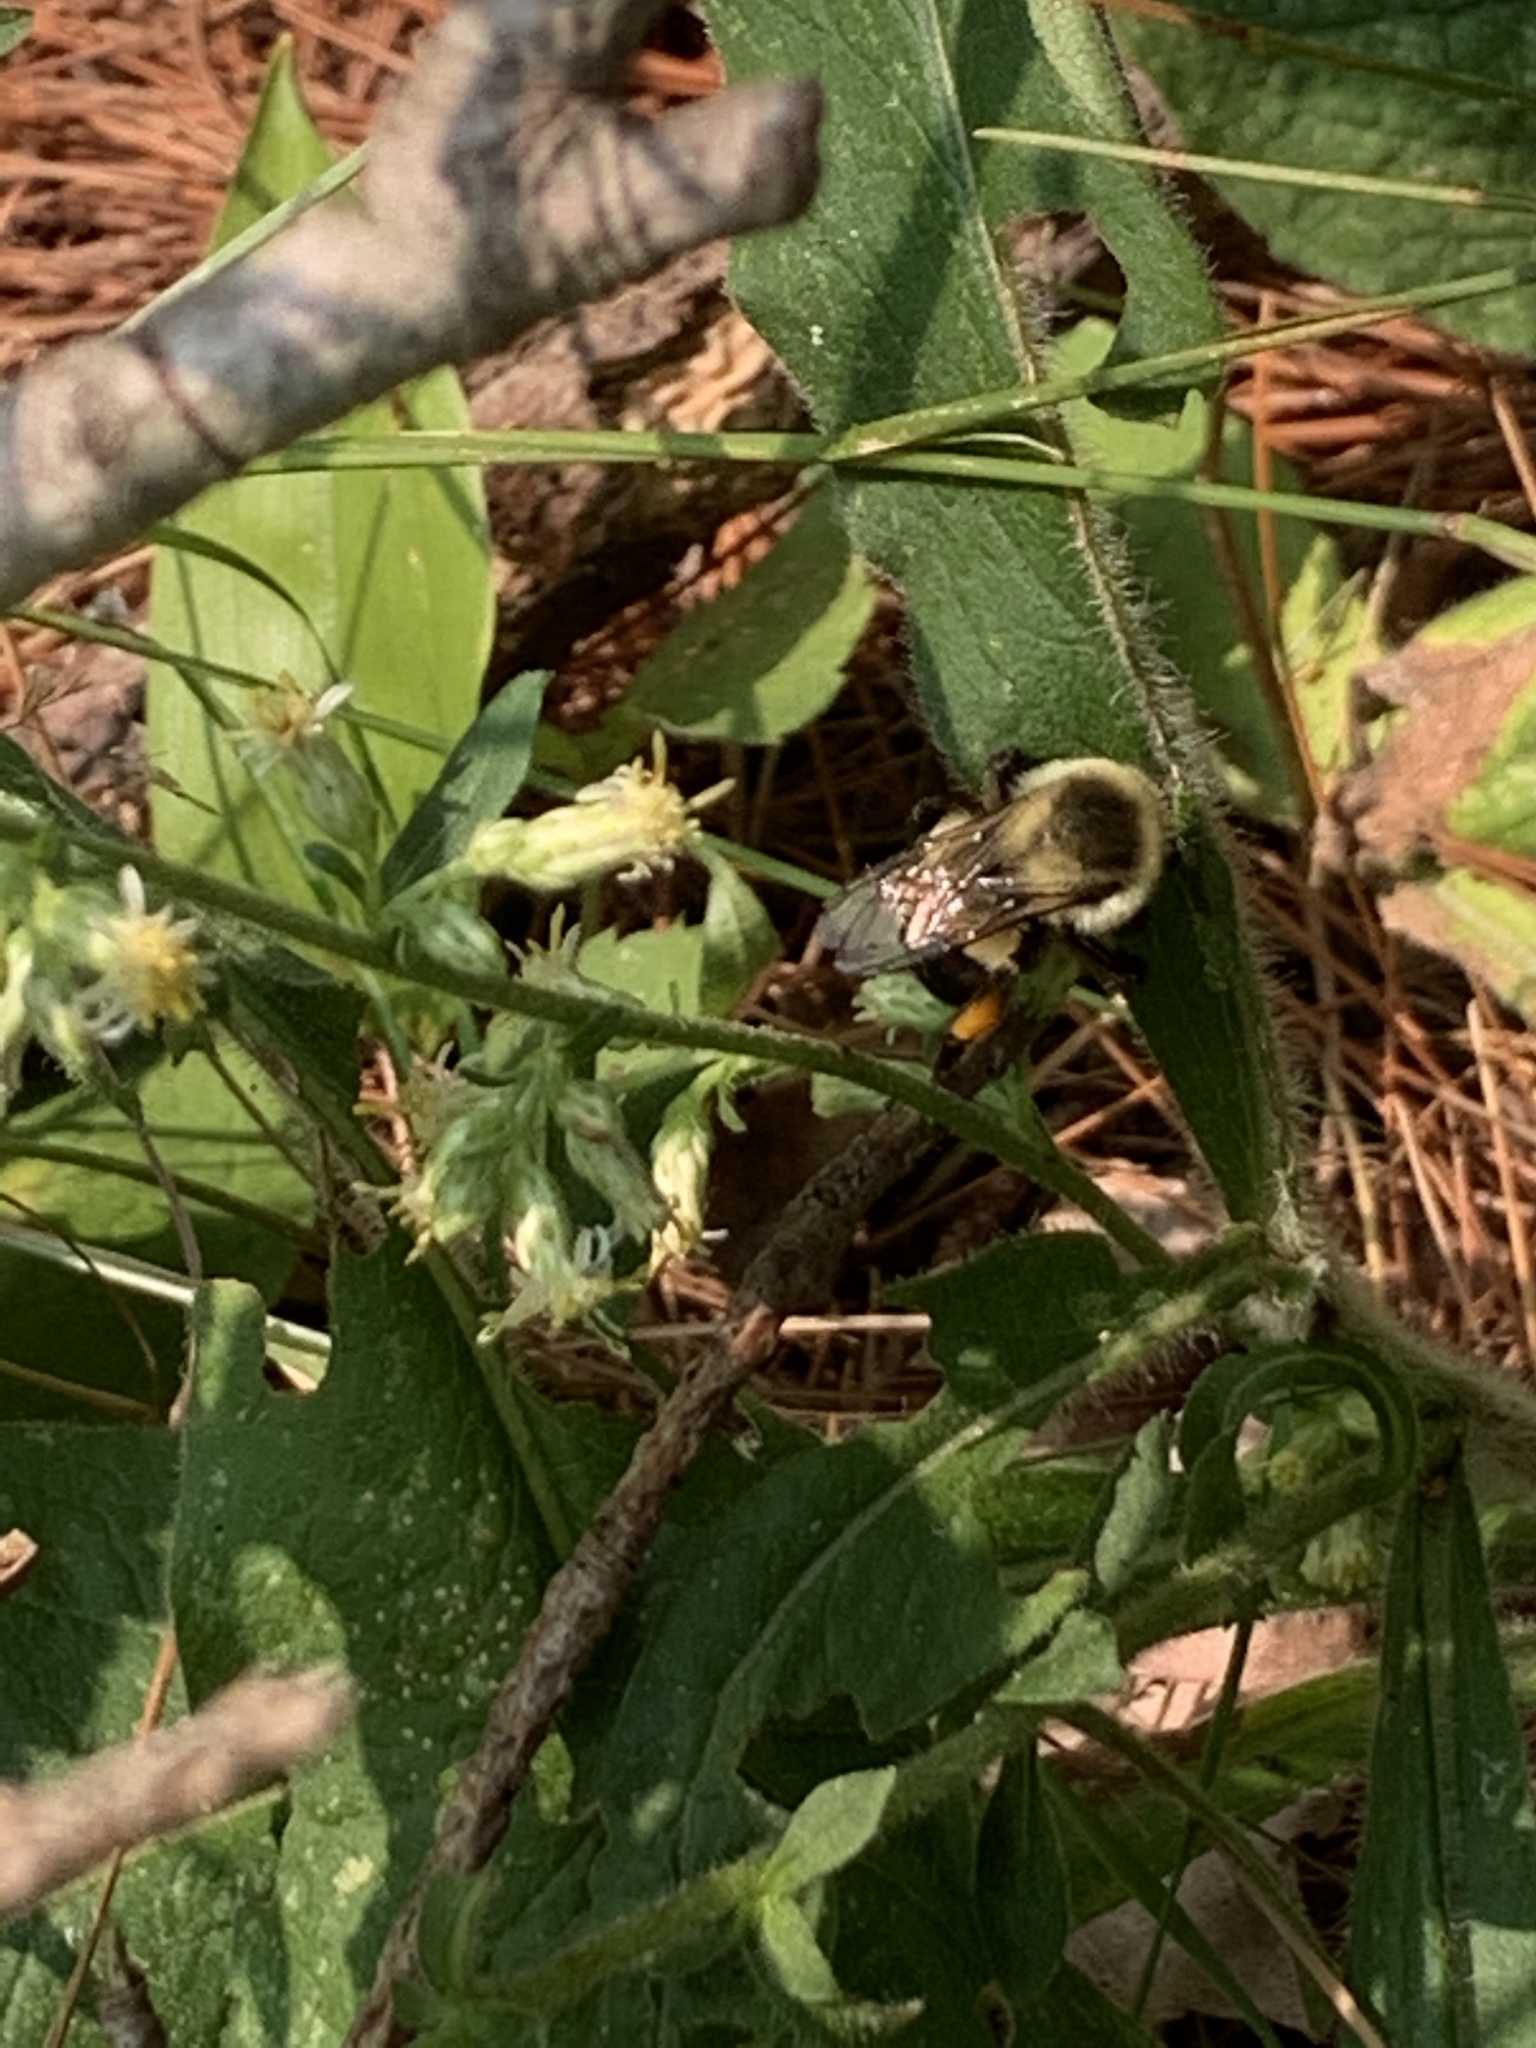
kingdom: Animalia
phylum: Arthropoda
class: Insecta
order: Hymenoptera
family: Apidae
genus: Bombus
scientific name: Bombus impatiens
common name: Common eastern bumble bee
